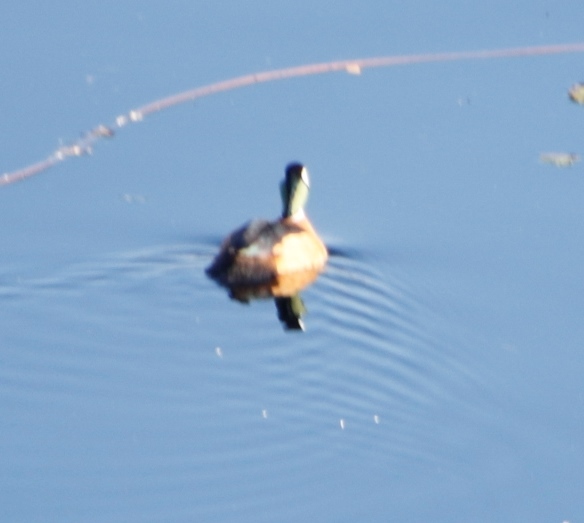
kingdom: Animalia
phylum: Chordata
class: Aves
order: Anseriformes
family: Anatidae
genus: Nettapus
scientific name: Nettapus auritus
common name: African pygmy-goose
